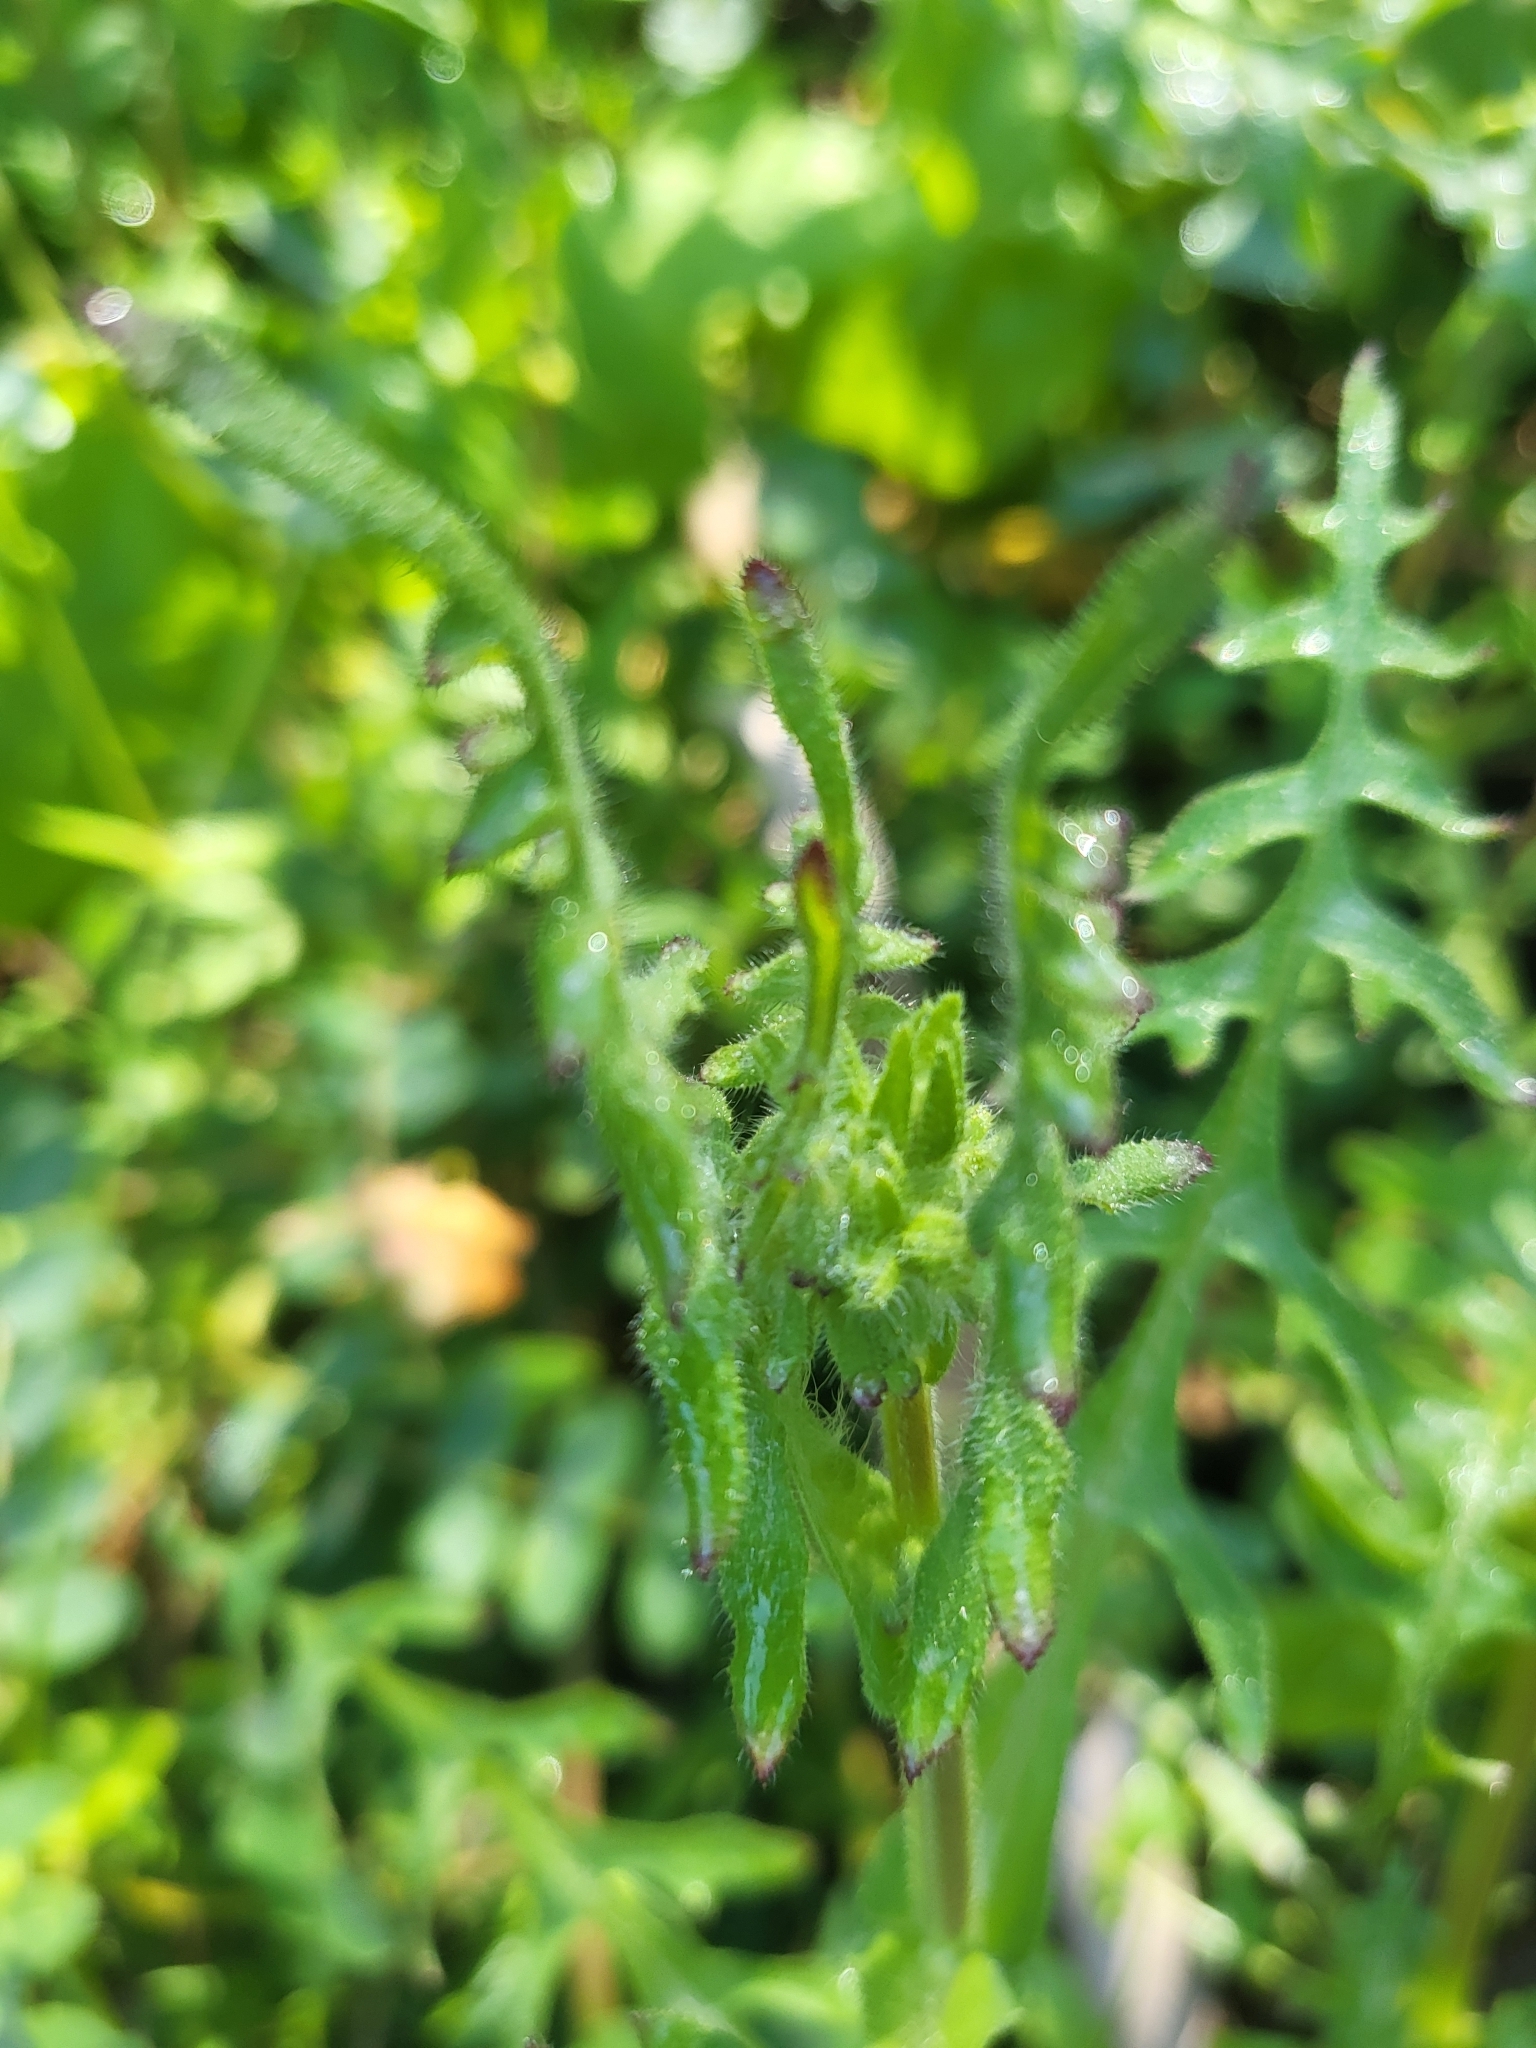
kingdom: Plantae
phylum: Tracheophyta
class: Magnoliopsida
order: Boraginales
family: Hydrophyllaceae
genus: Pholistoma
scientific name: Pholistoma auritum
